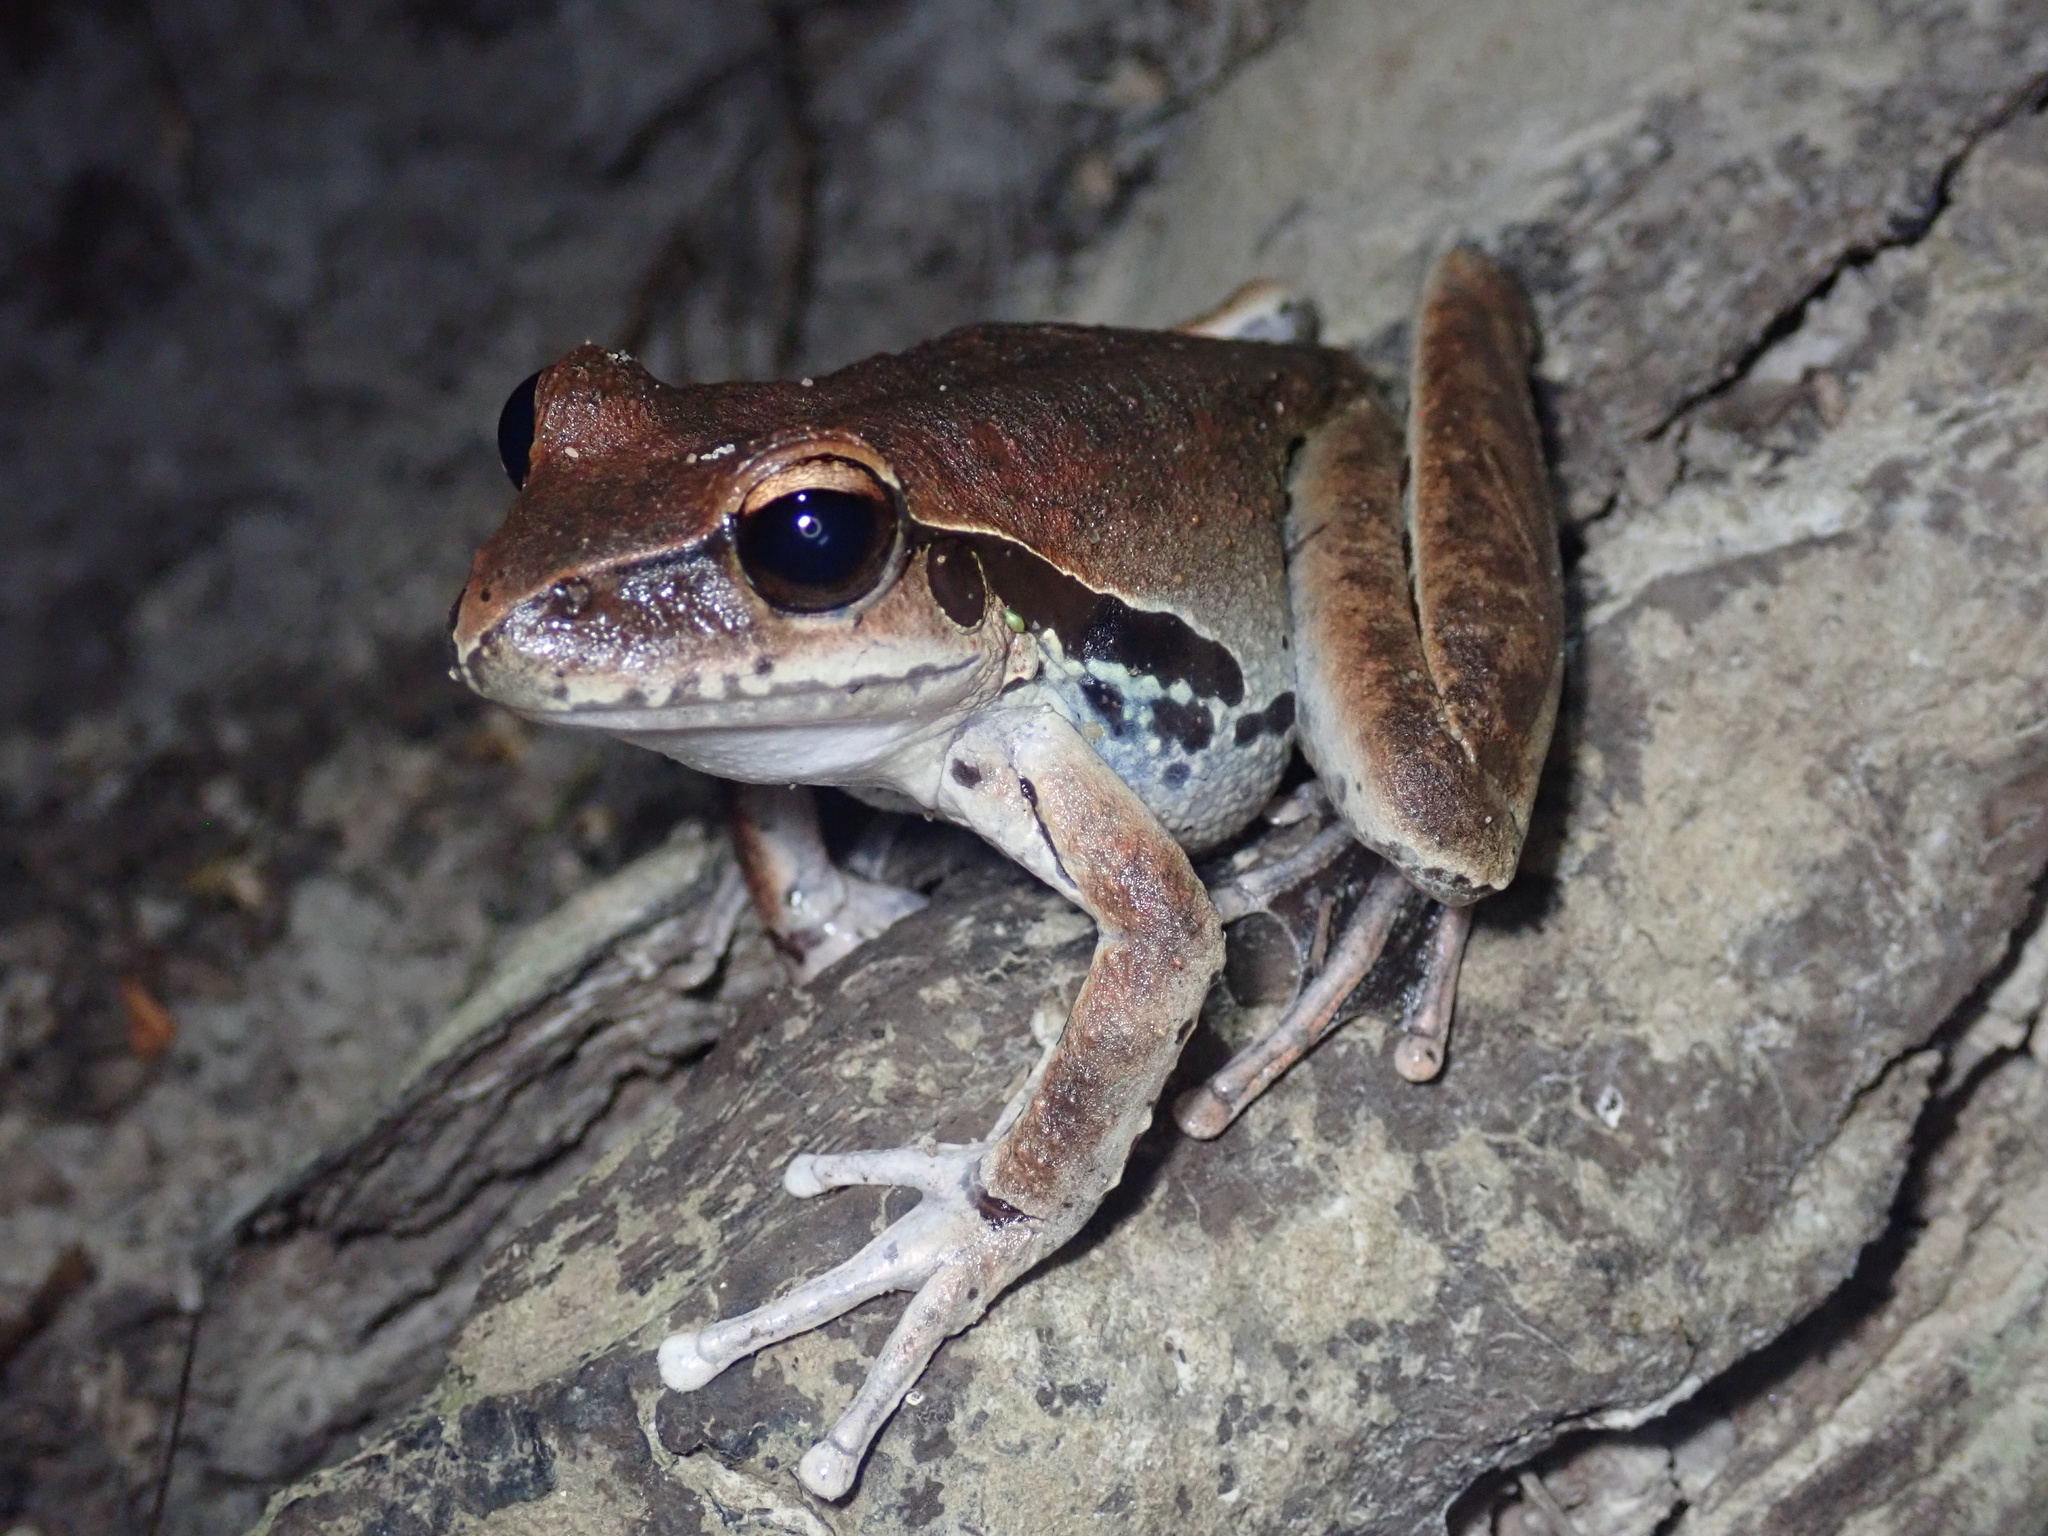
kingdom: Animalia
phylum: Chordata
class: Amphibia
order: Anura
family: Hylidae
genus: Ranoidea
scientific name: Ranoidea
